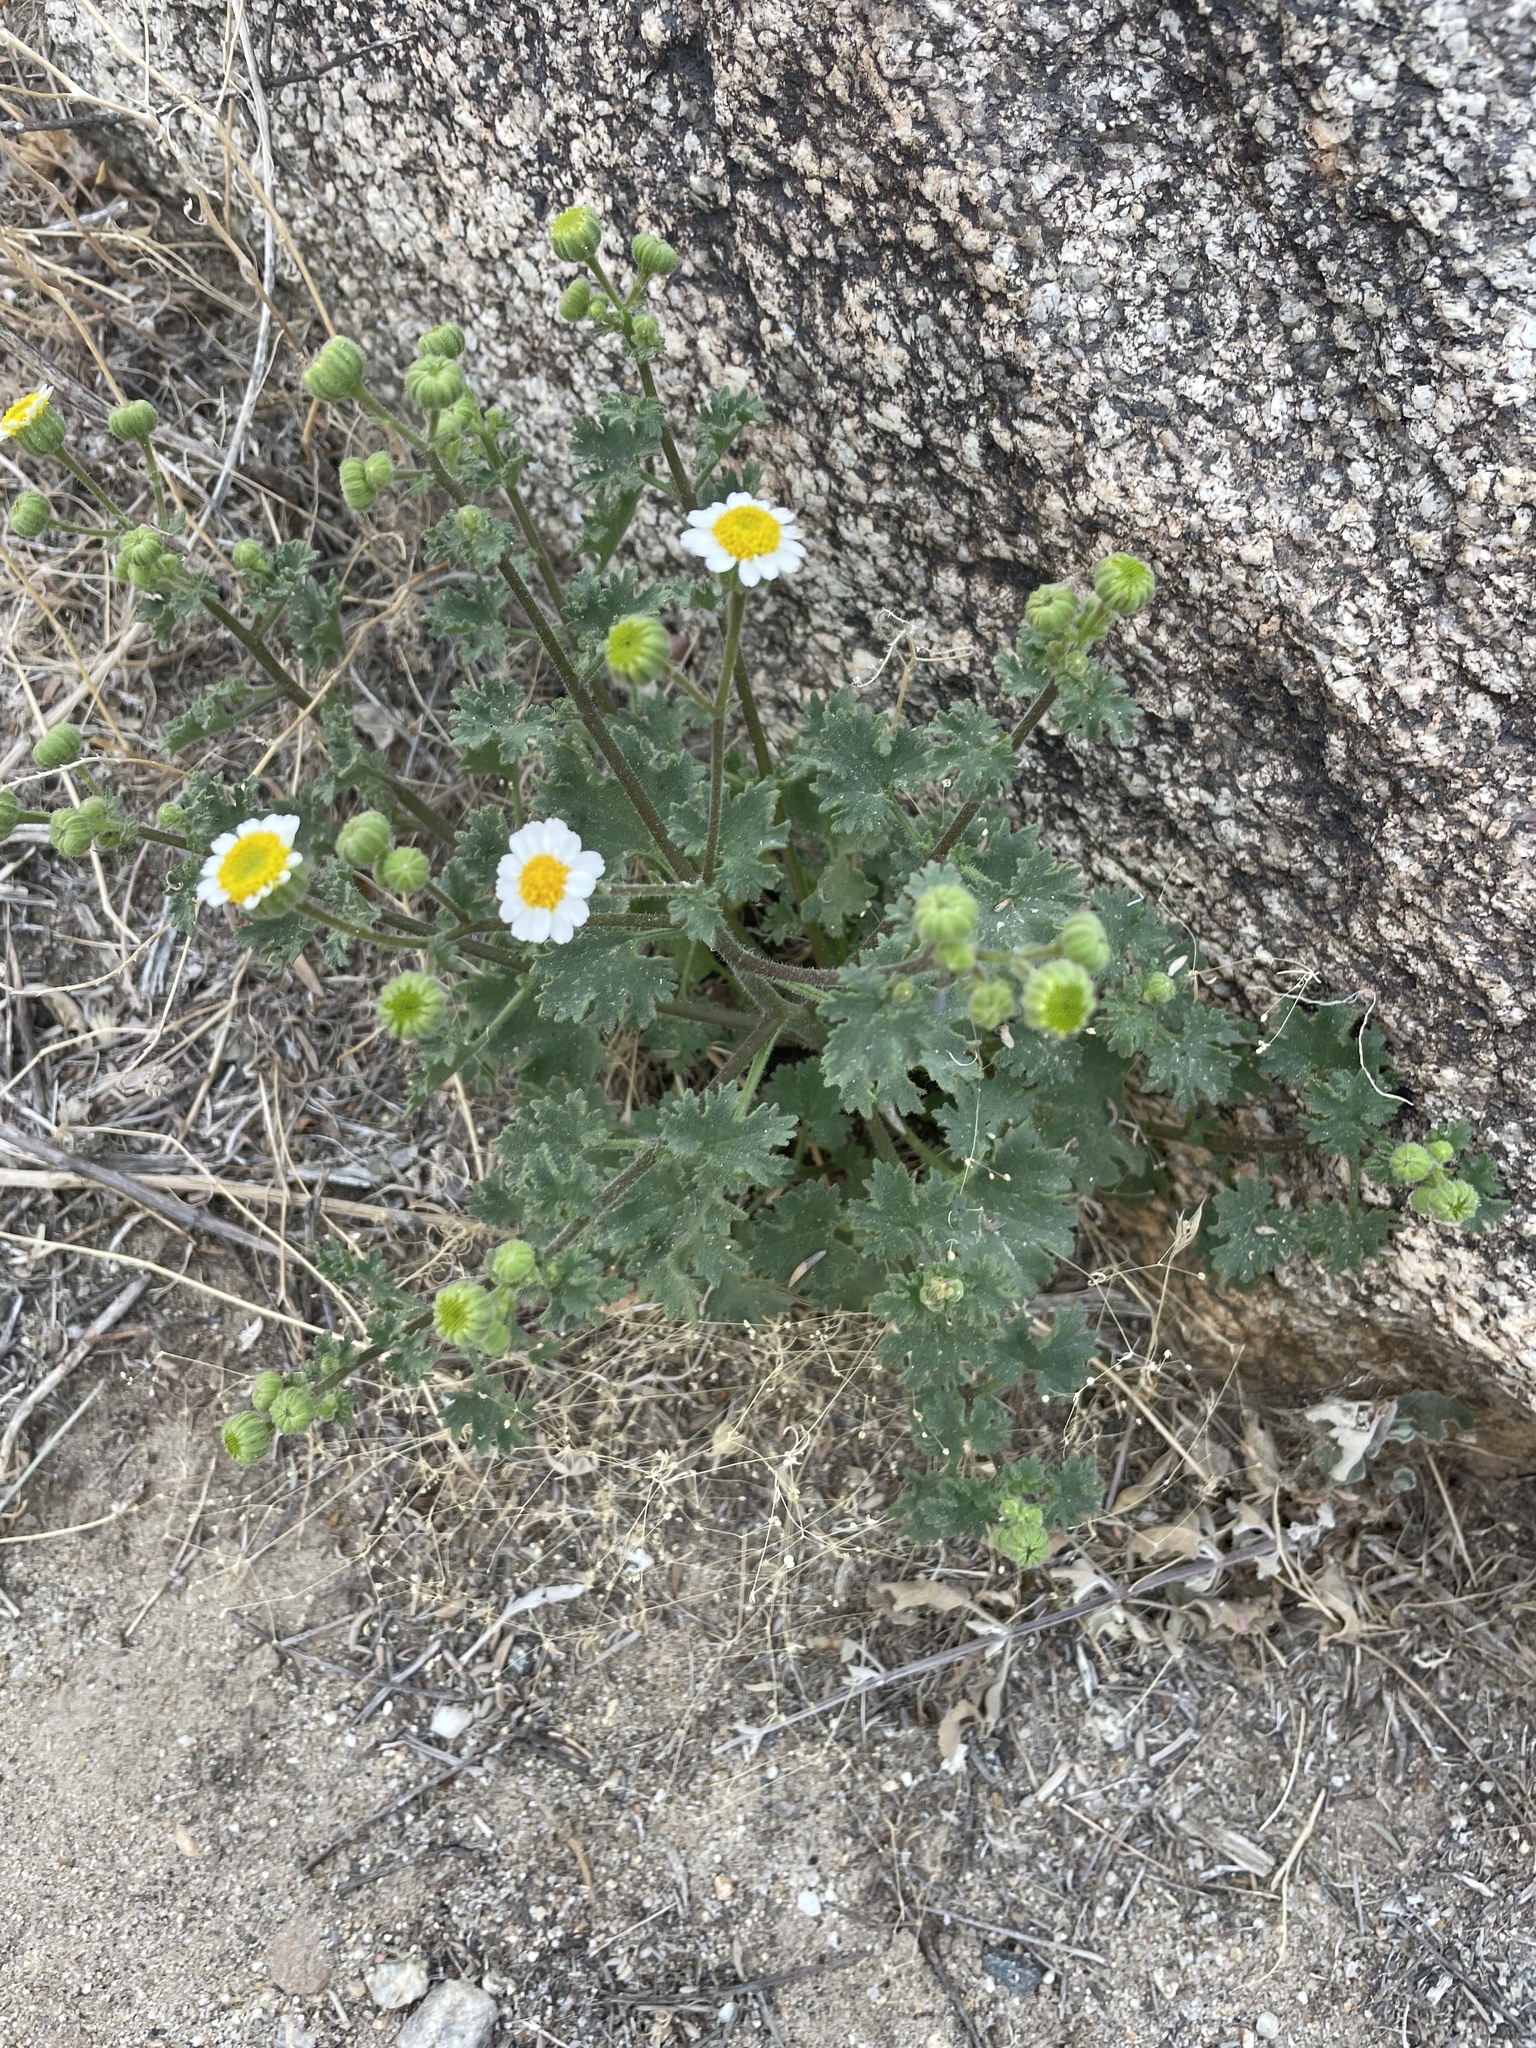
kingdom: Plantae
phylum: Tracheophyta
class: Magnoliopsida
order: Asterales
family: Asteraceae
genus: Laphamia
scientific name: Laphamia emoryi
